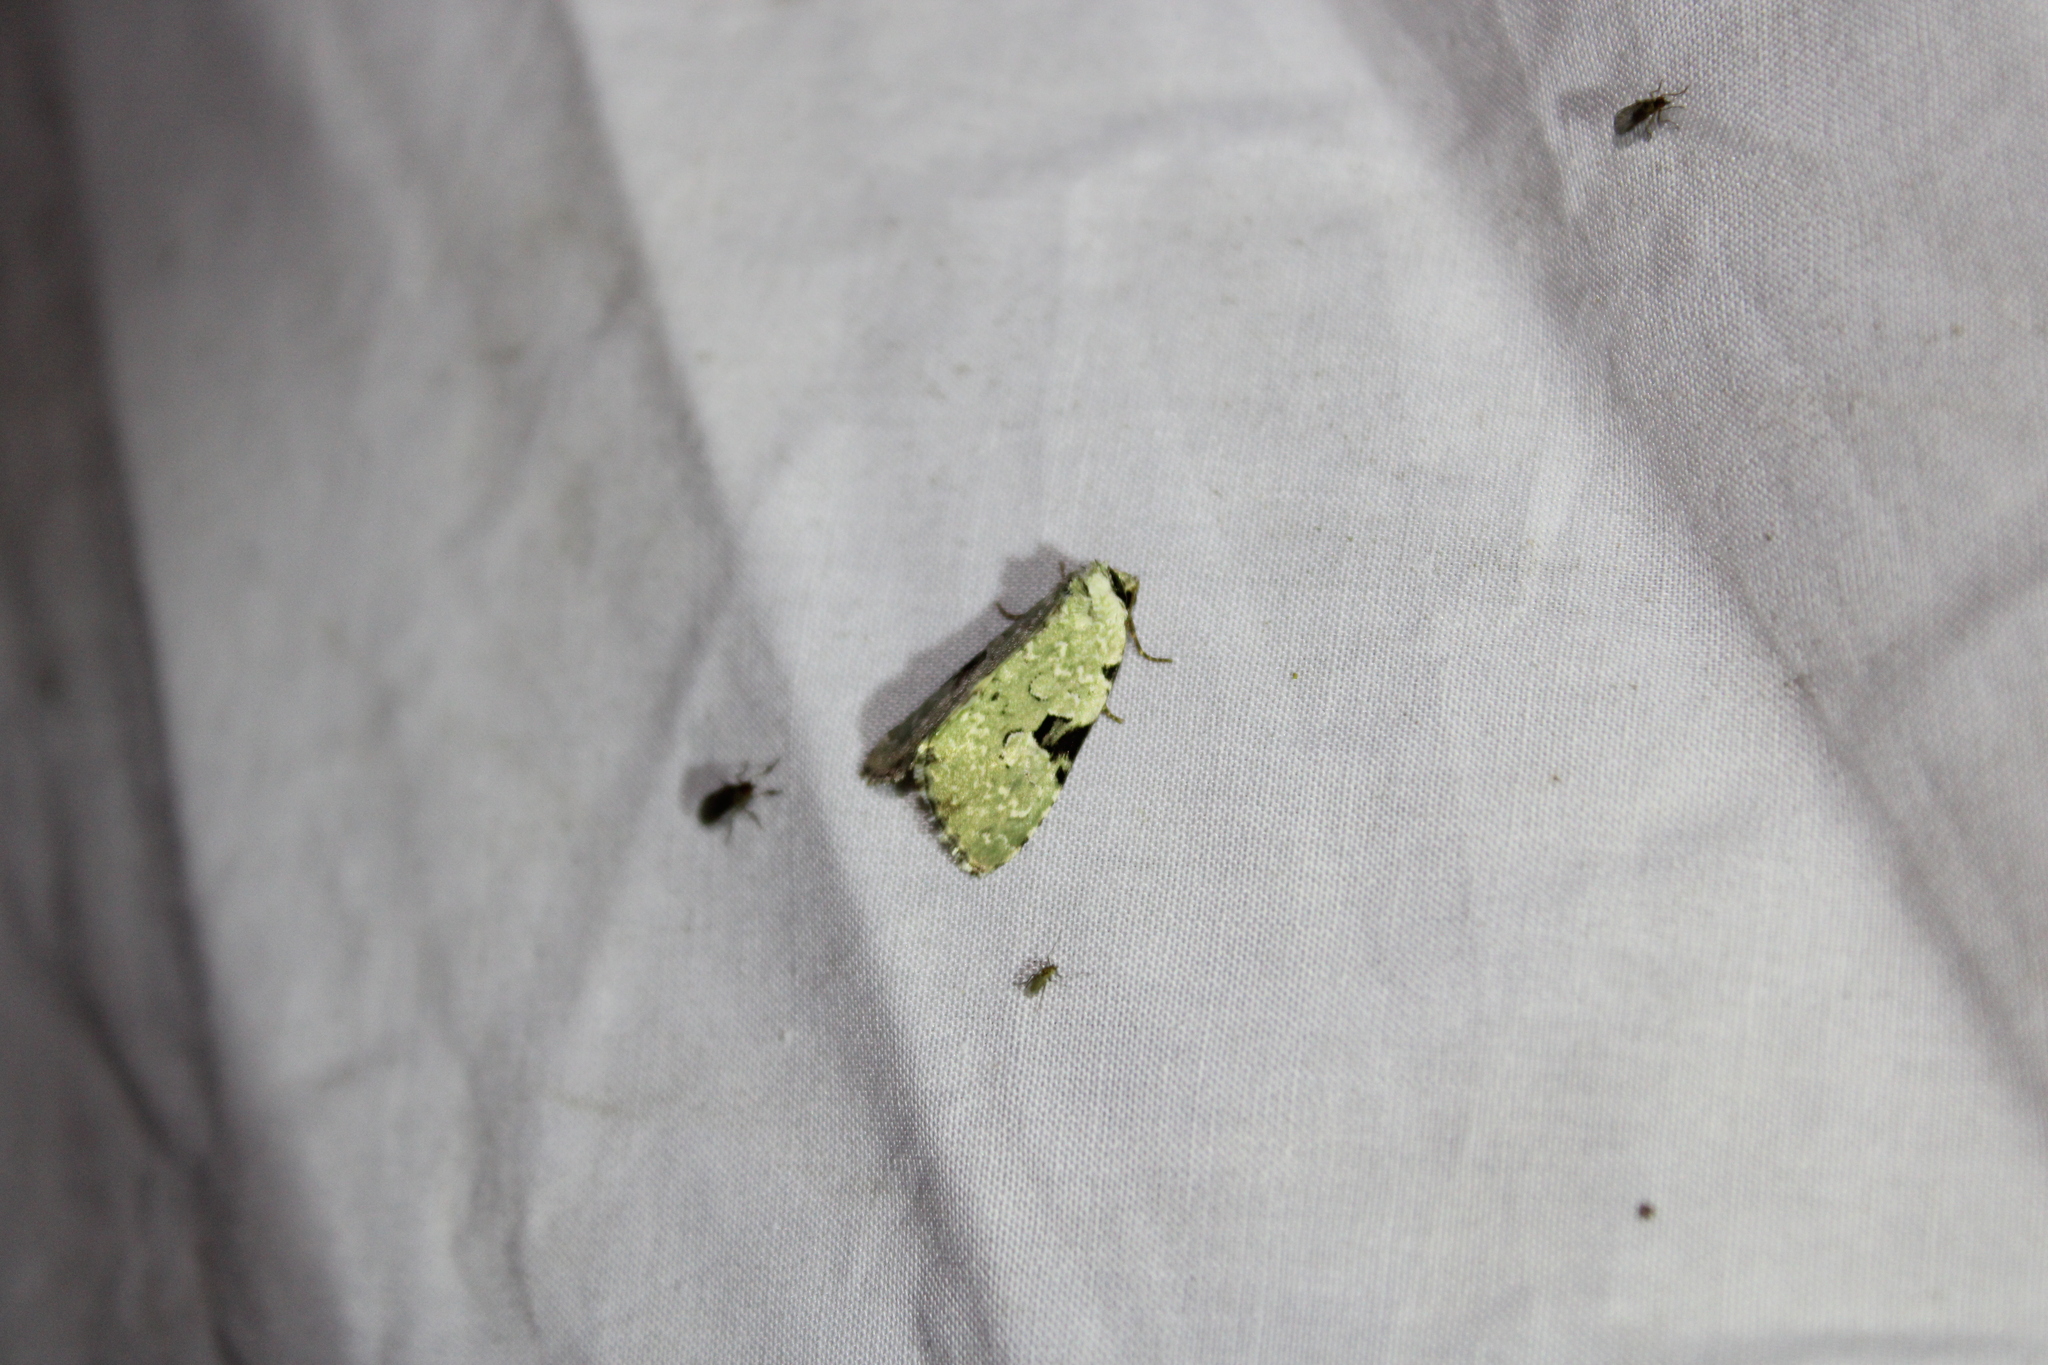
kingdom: Animalia
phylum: Arthropoda
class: Insecta
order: Lepidoptera
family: Noctuidae
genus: Leuconycta
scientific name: Leuconycta diphteroides
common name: Green leuconycta moth
